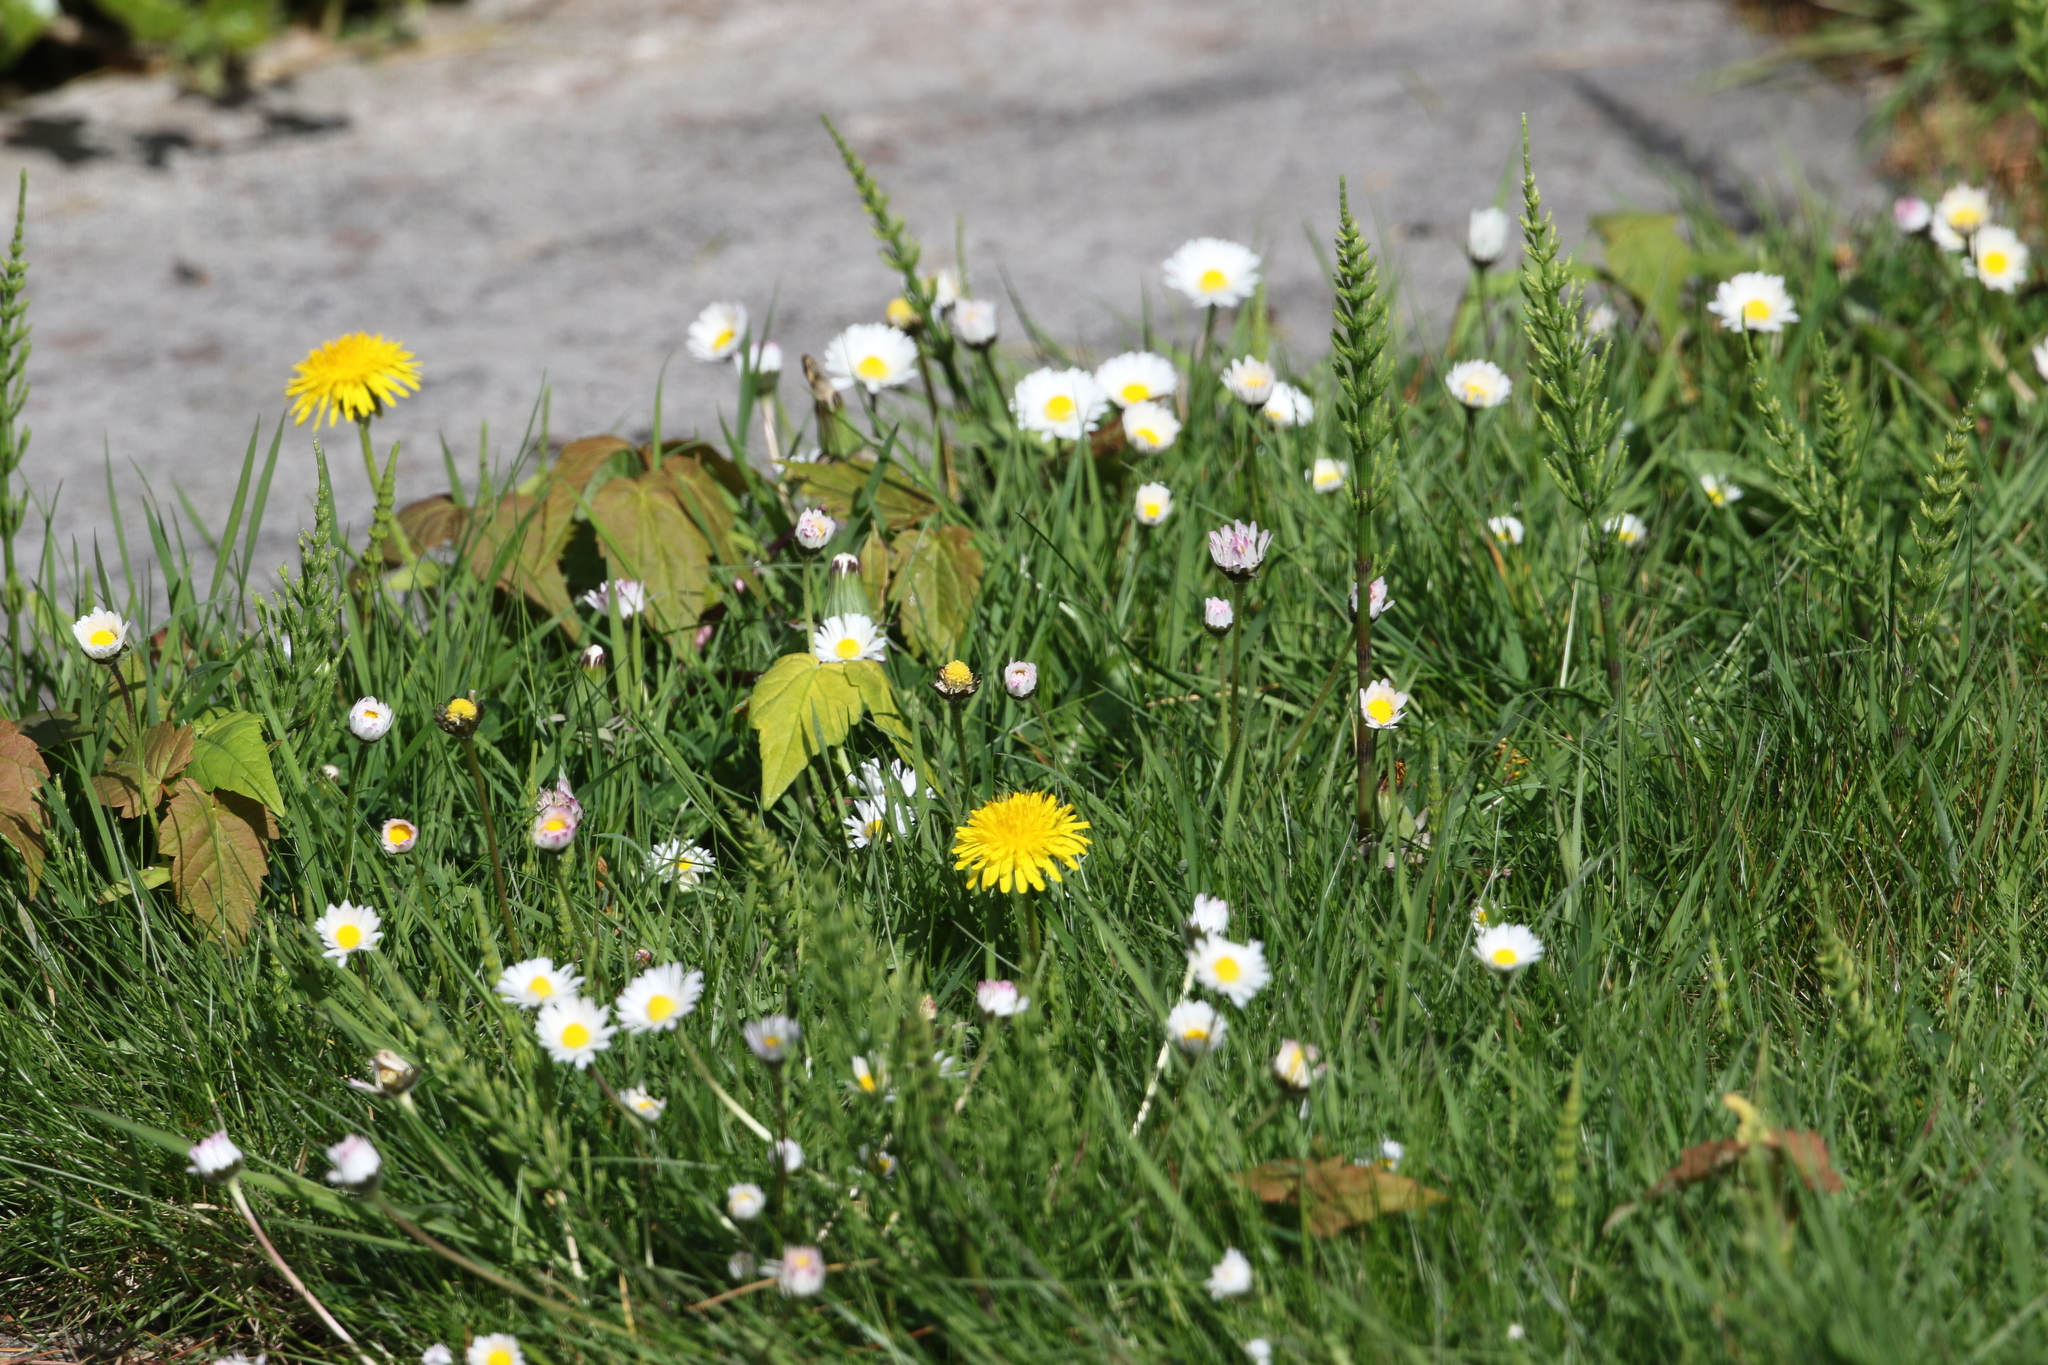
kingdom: Plantae
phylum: Tracheophyta
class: Polypodiopsida
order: Equisetales
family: Equisetaceae
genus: Equisetum
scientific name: Equisetum arvense
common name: Field horsetail
